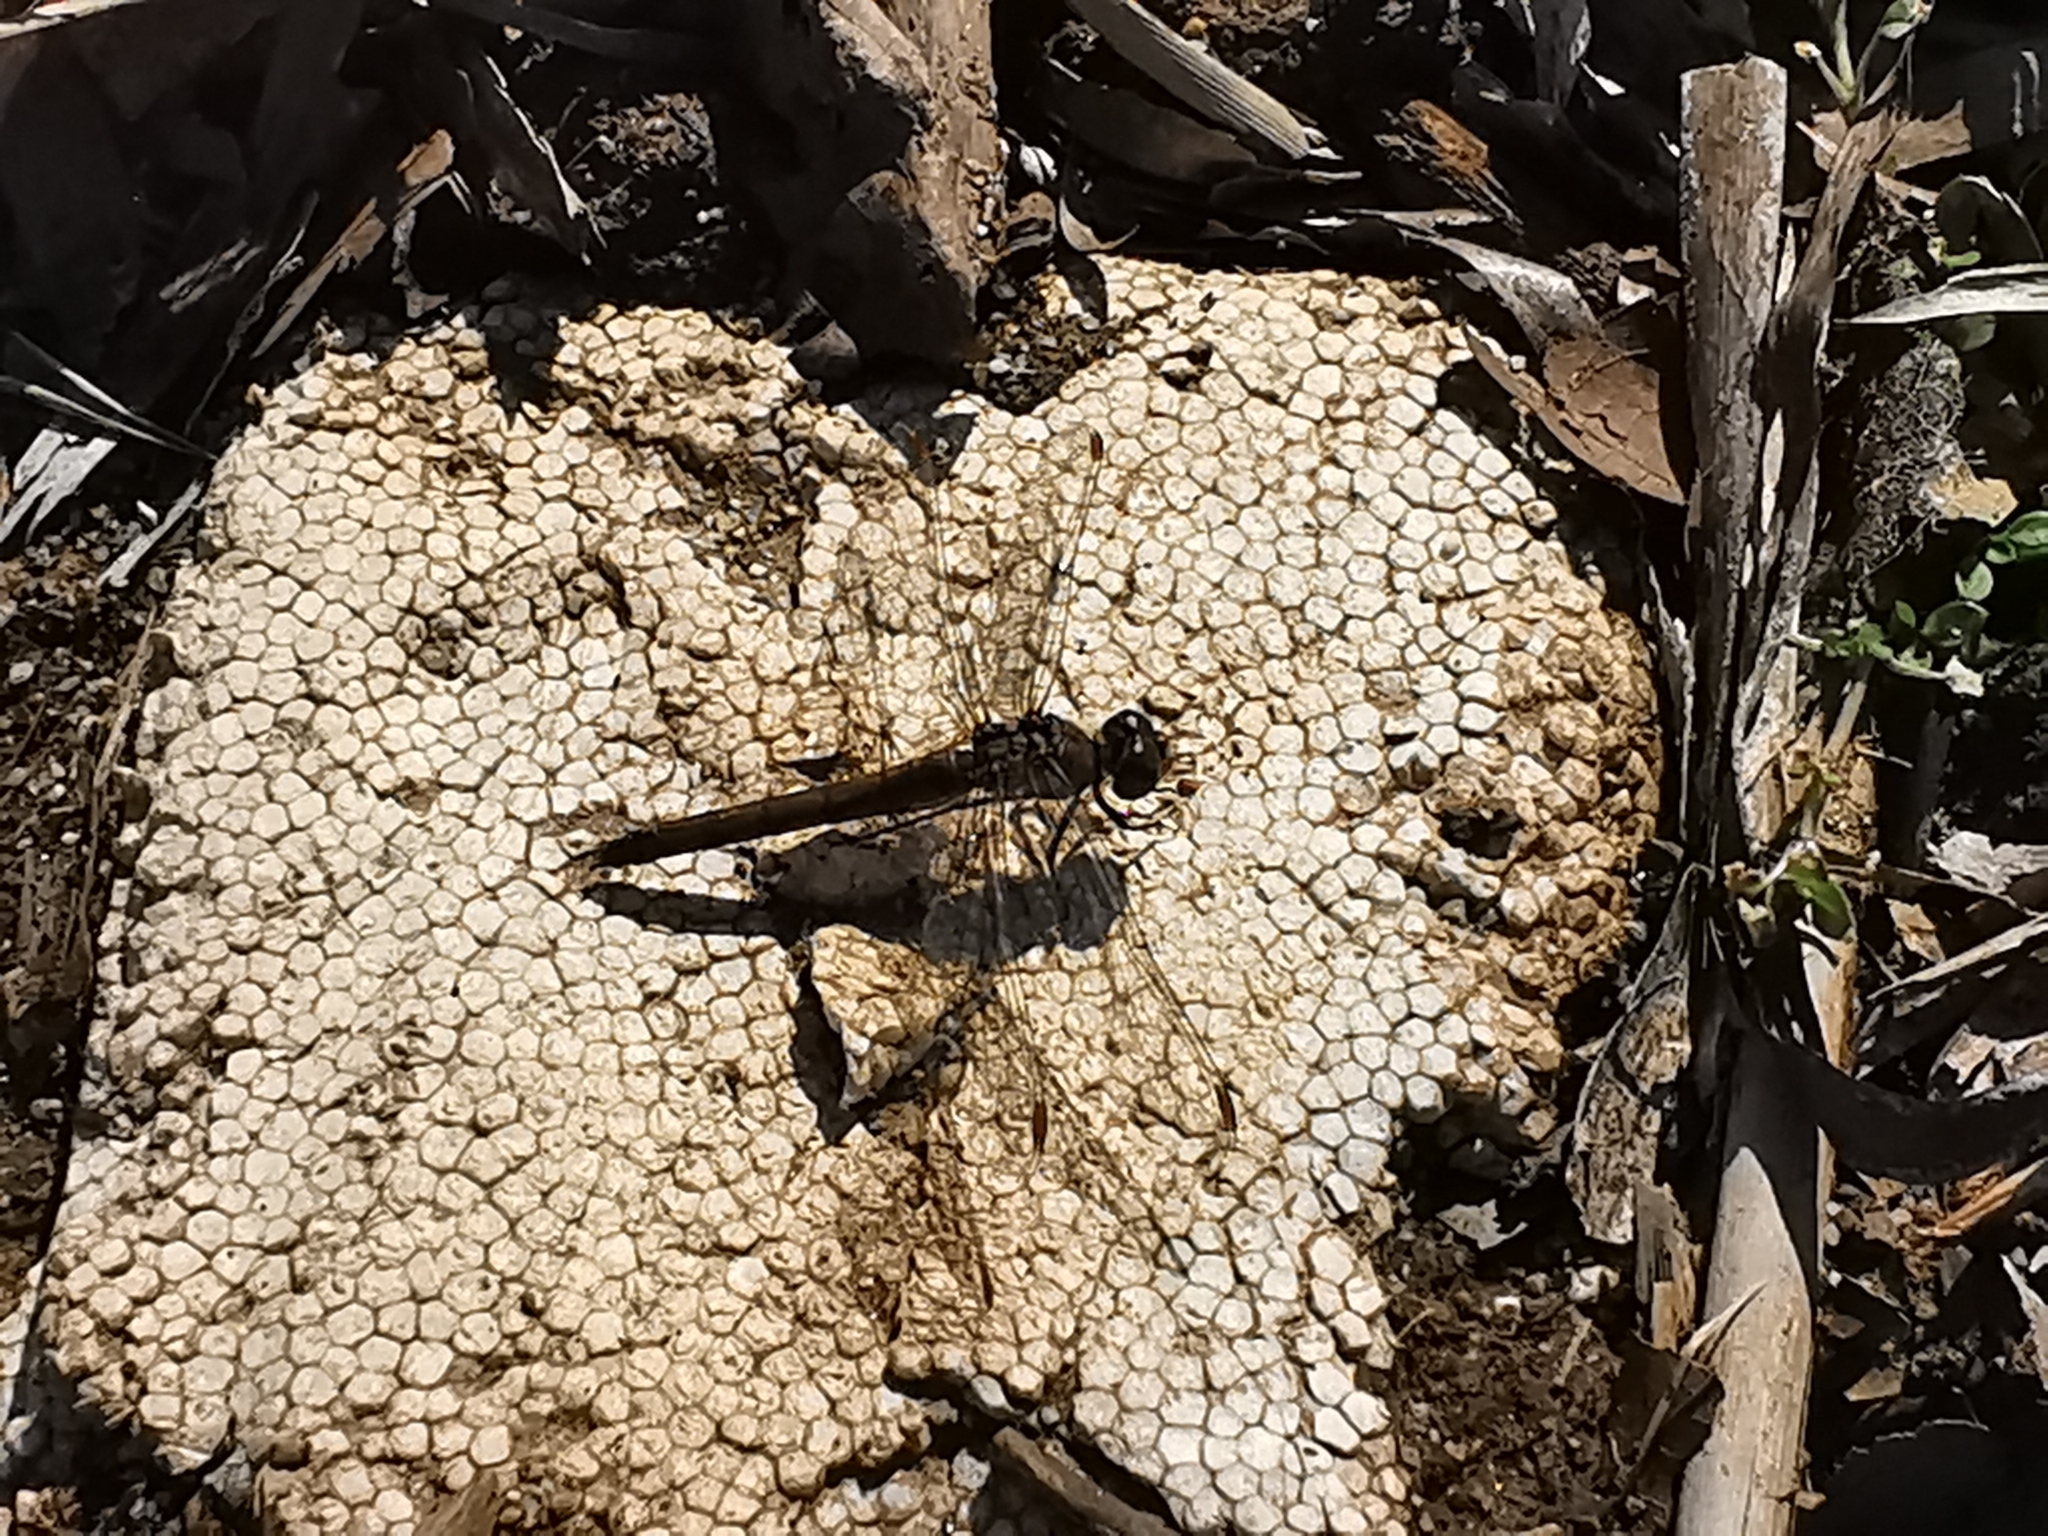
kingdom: Animalia
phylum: Arthropoda
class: Insecta
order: Odonata
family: Libellulidae
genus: Orthetrum
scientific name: Orthetrum coerulescens
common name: Keeled skimmer
